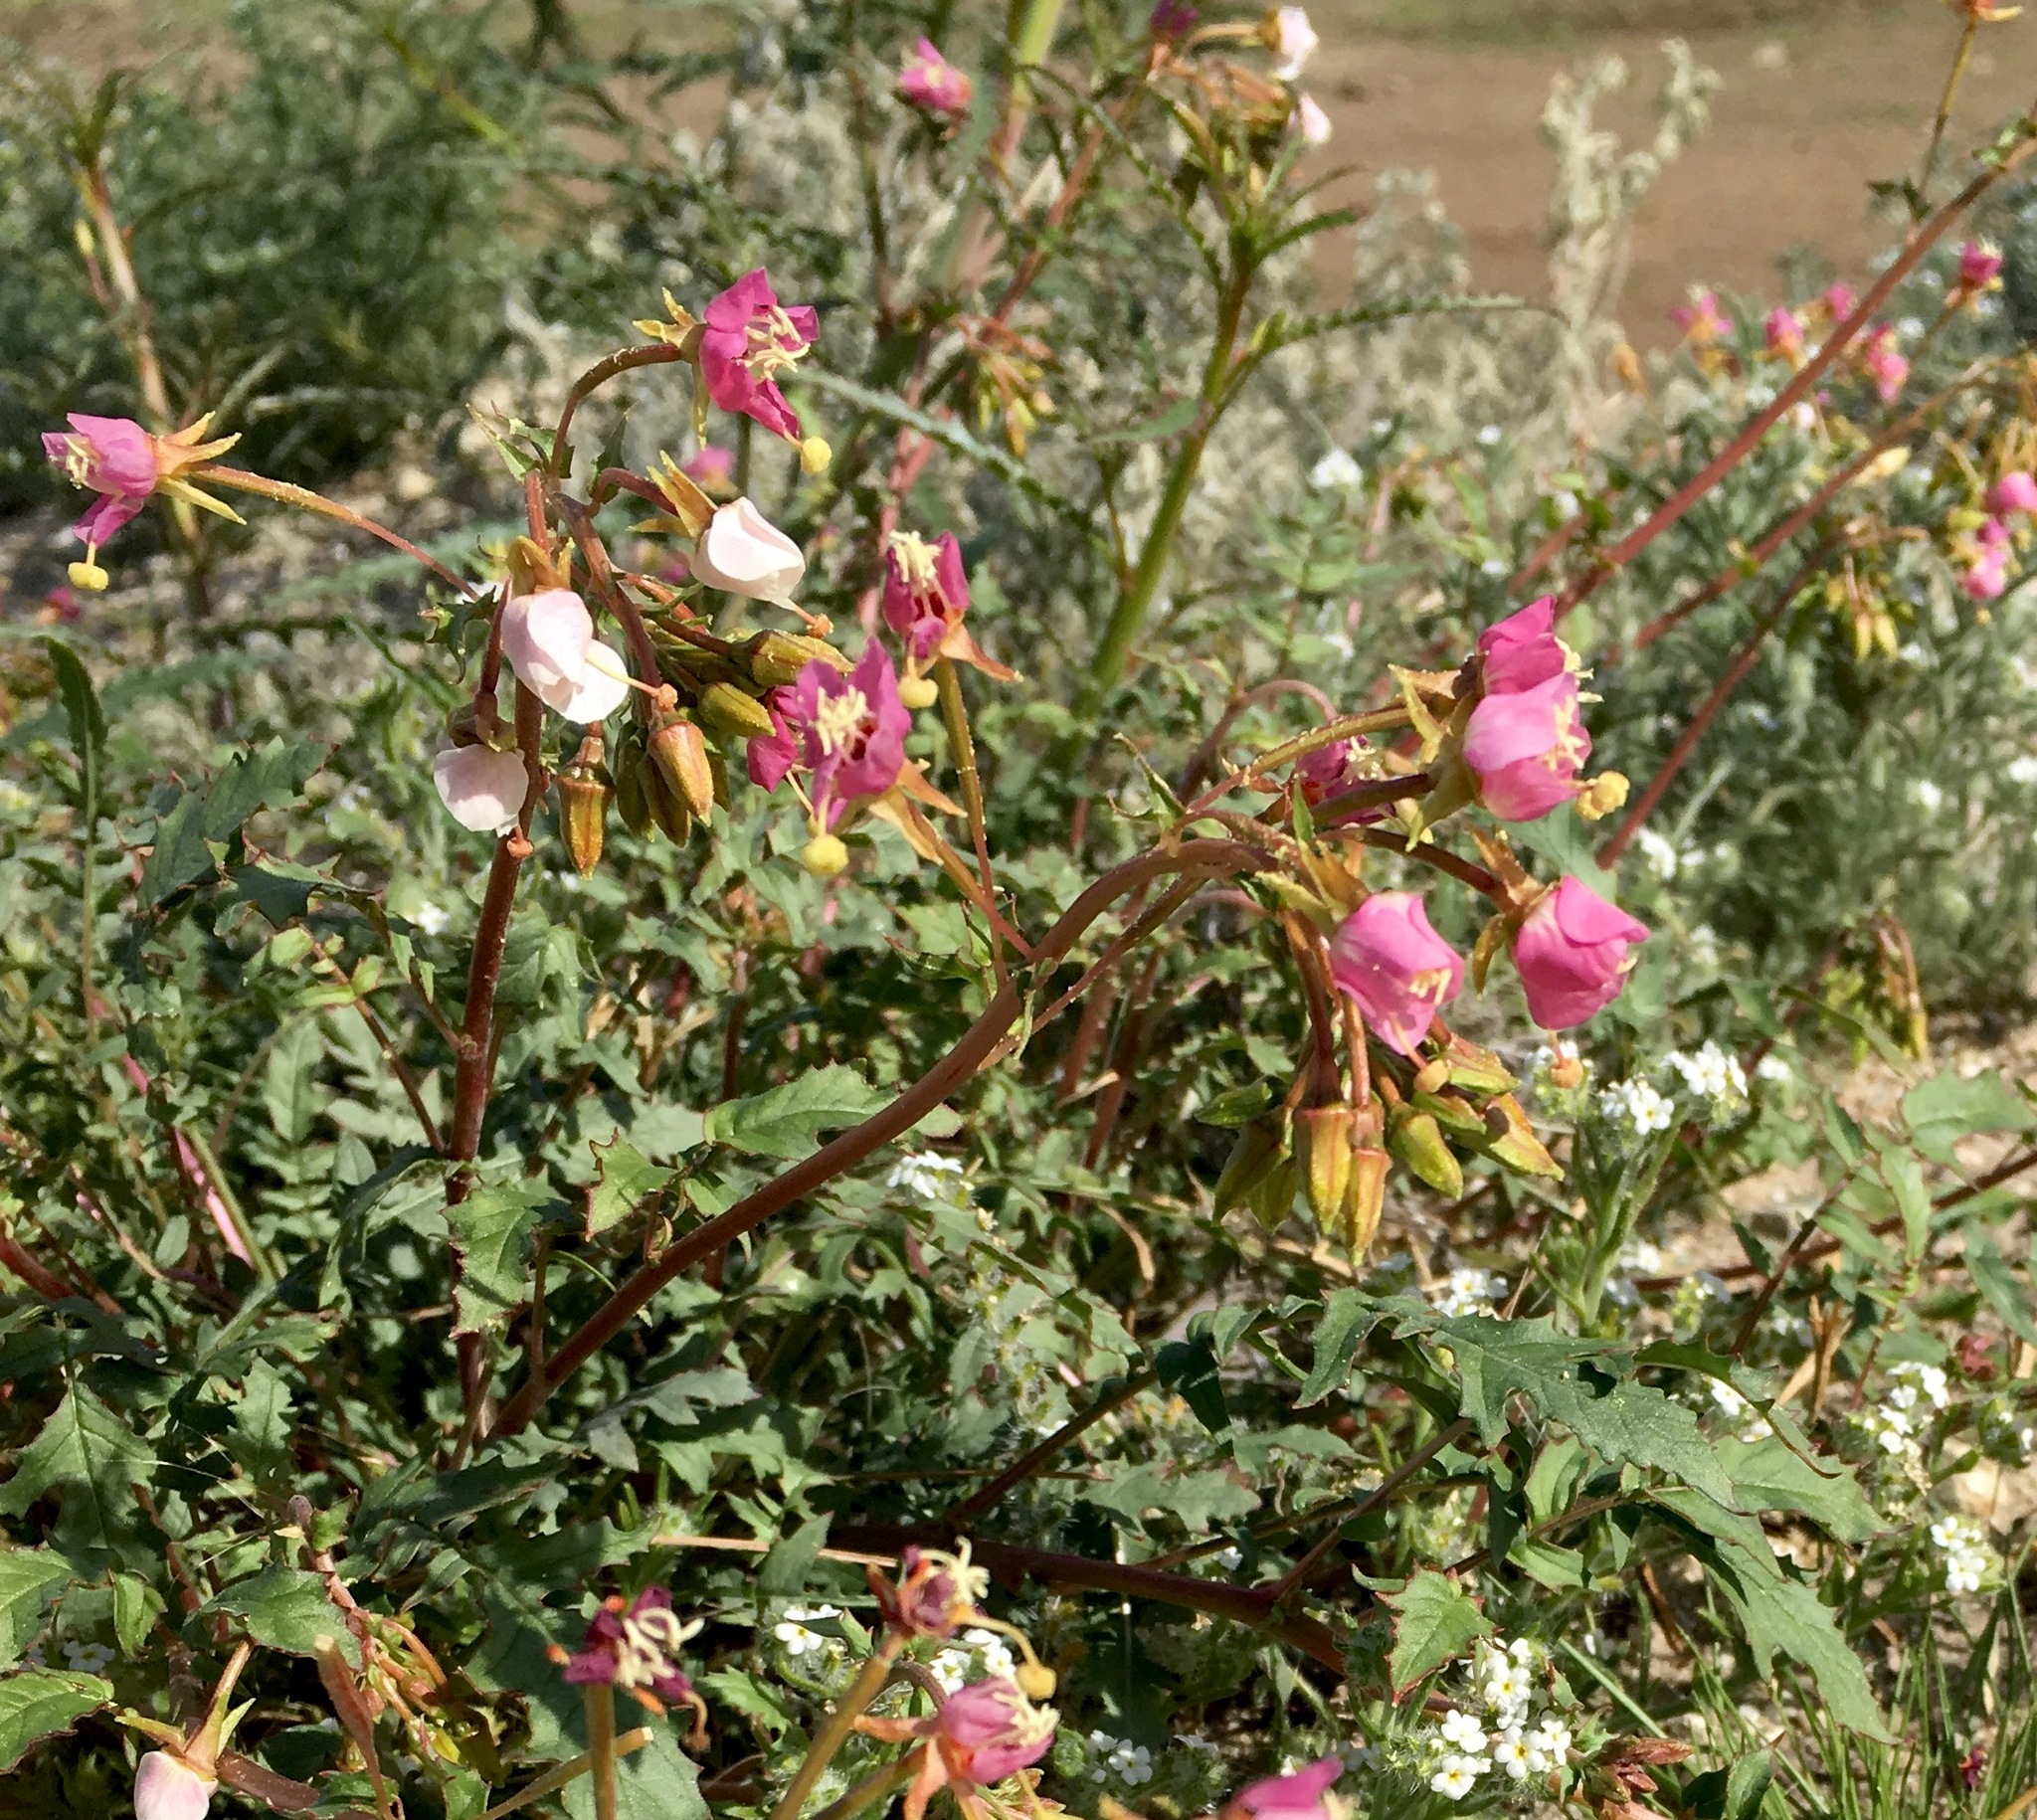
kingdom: Plantae
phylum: Tracheophyta
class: Magnoliopsida
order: Myrtales
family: Onagraceae
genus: Chylismia
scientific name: Chylismia claviformis
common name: Browneyes
